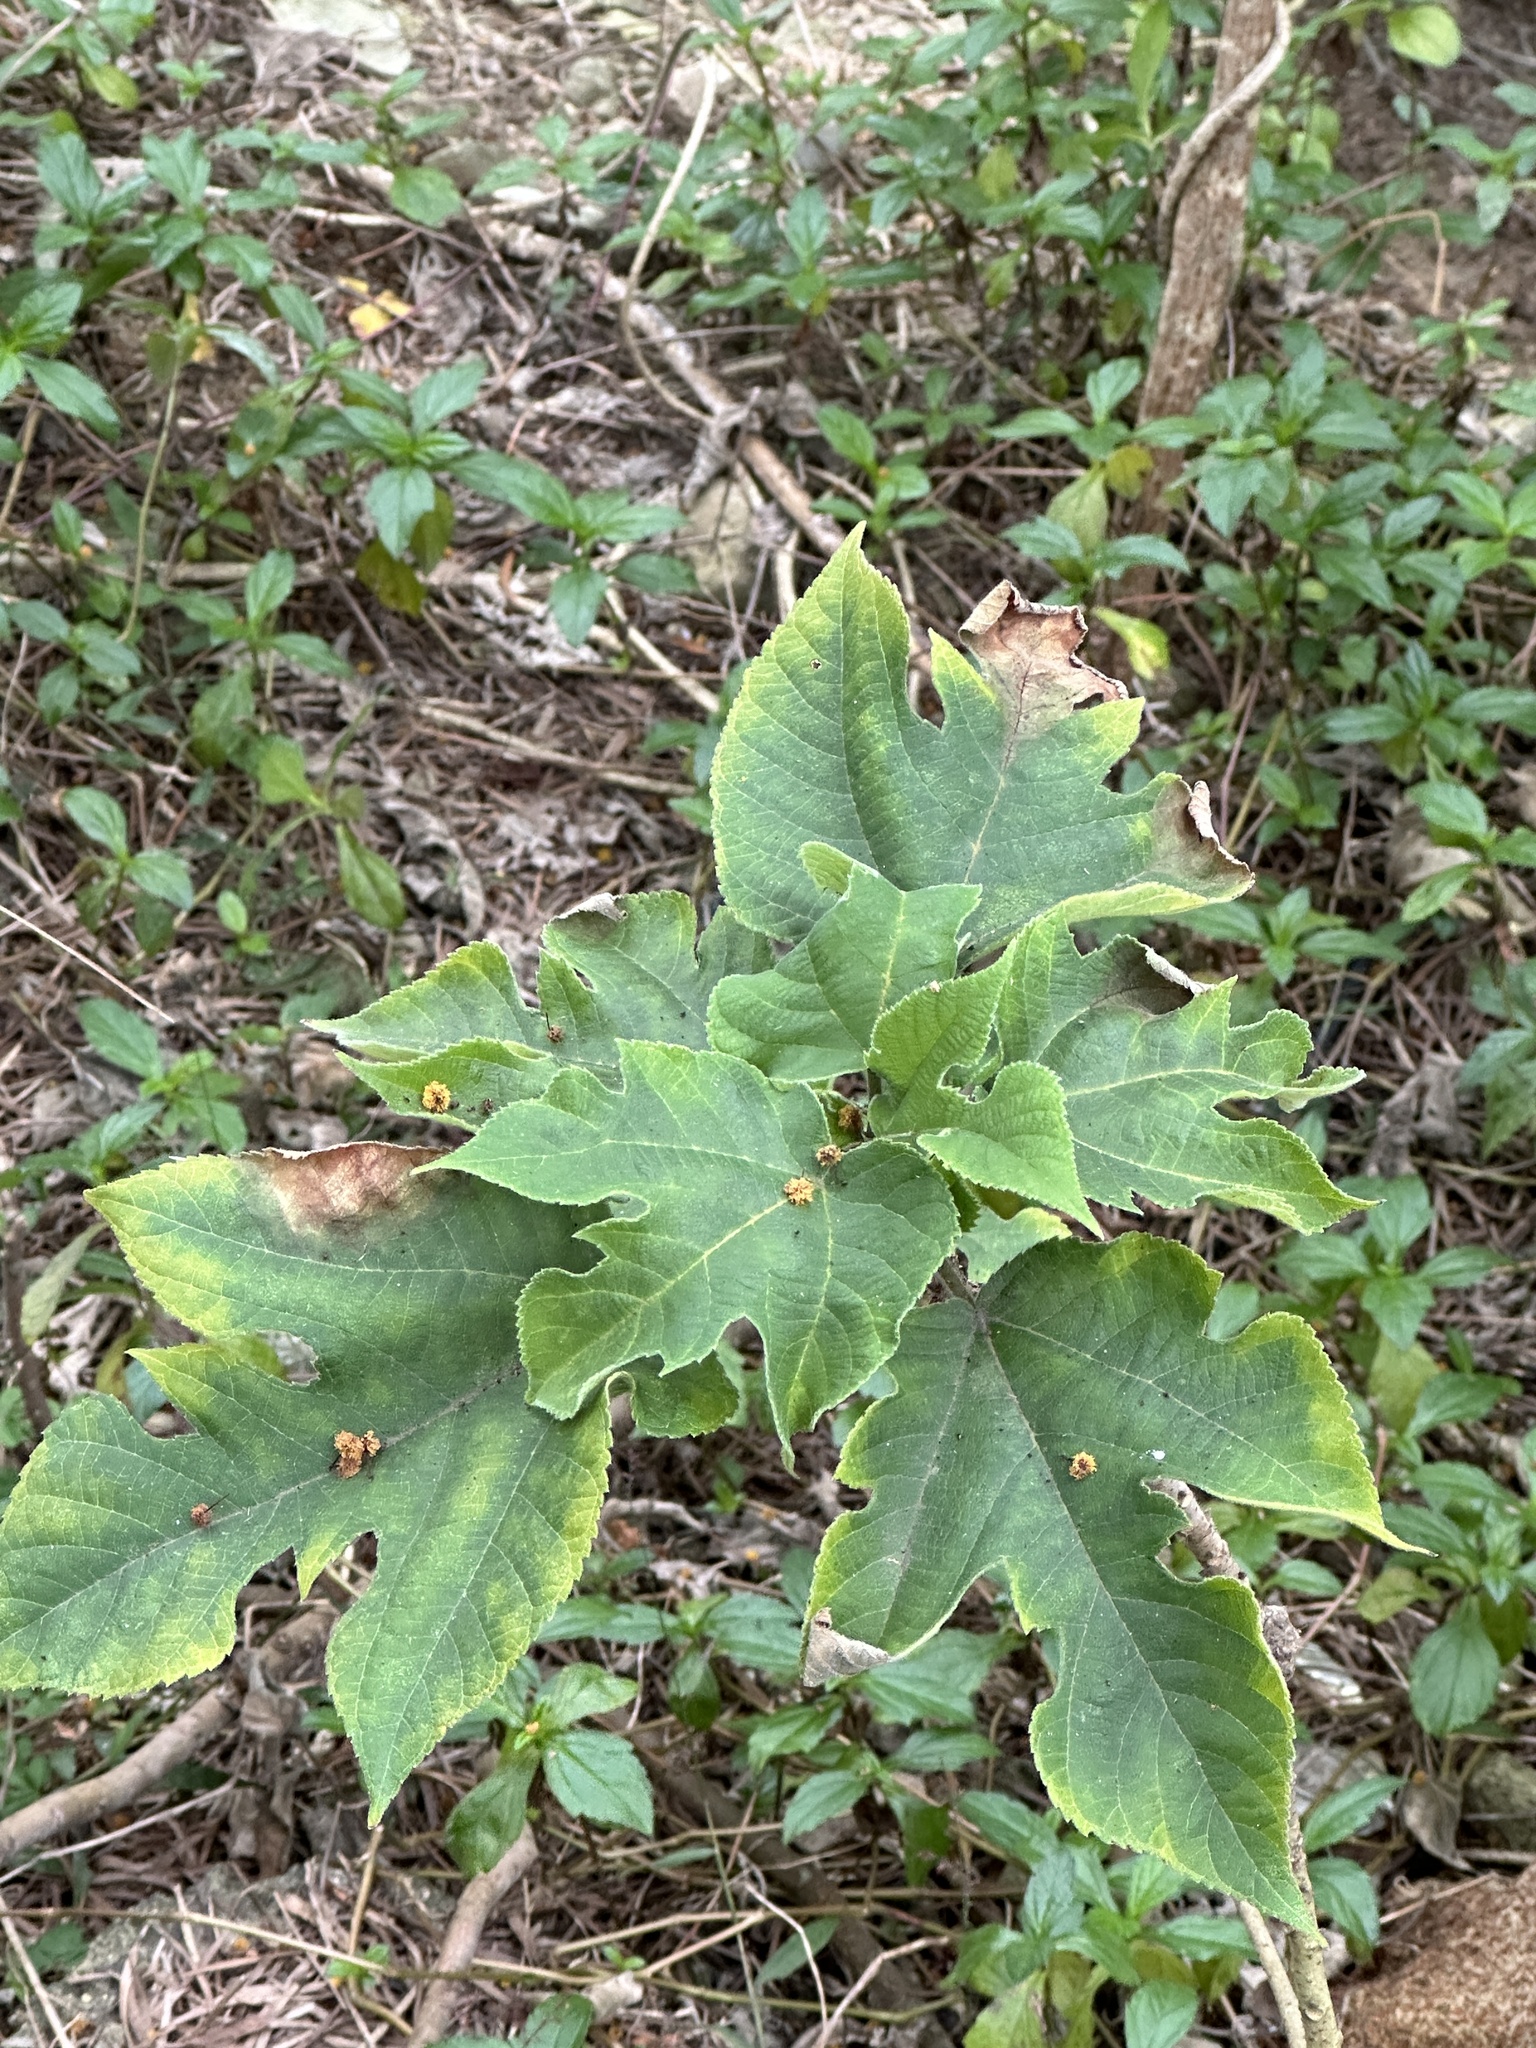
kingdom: Plantae
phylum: Tracheophyta
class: Magnoliopsida
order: Rosales
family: Moraceae
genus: Broussonetia
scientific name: Broussonetia papyrifera
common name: Paper mulberry
